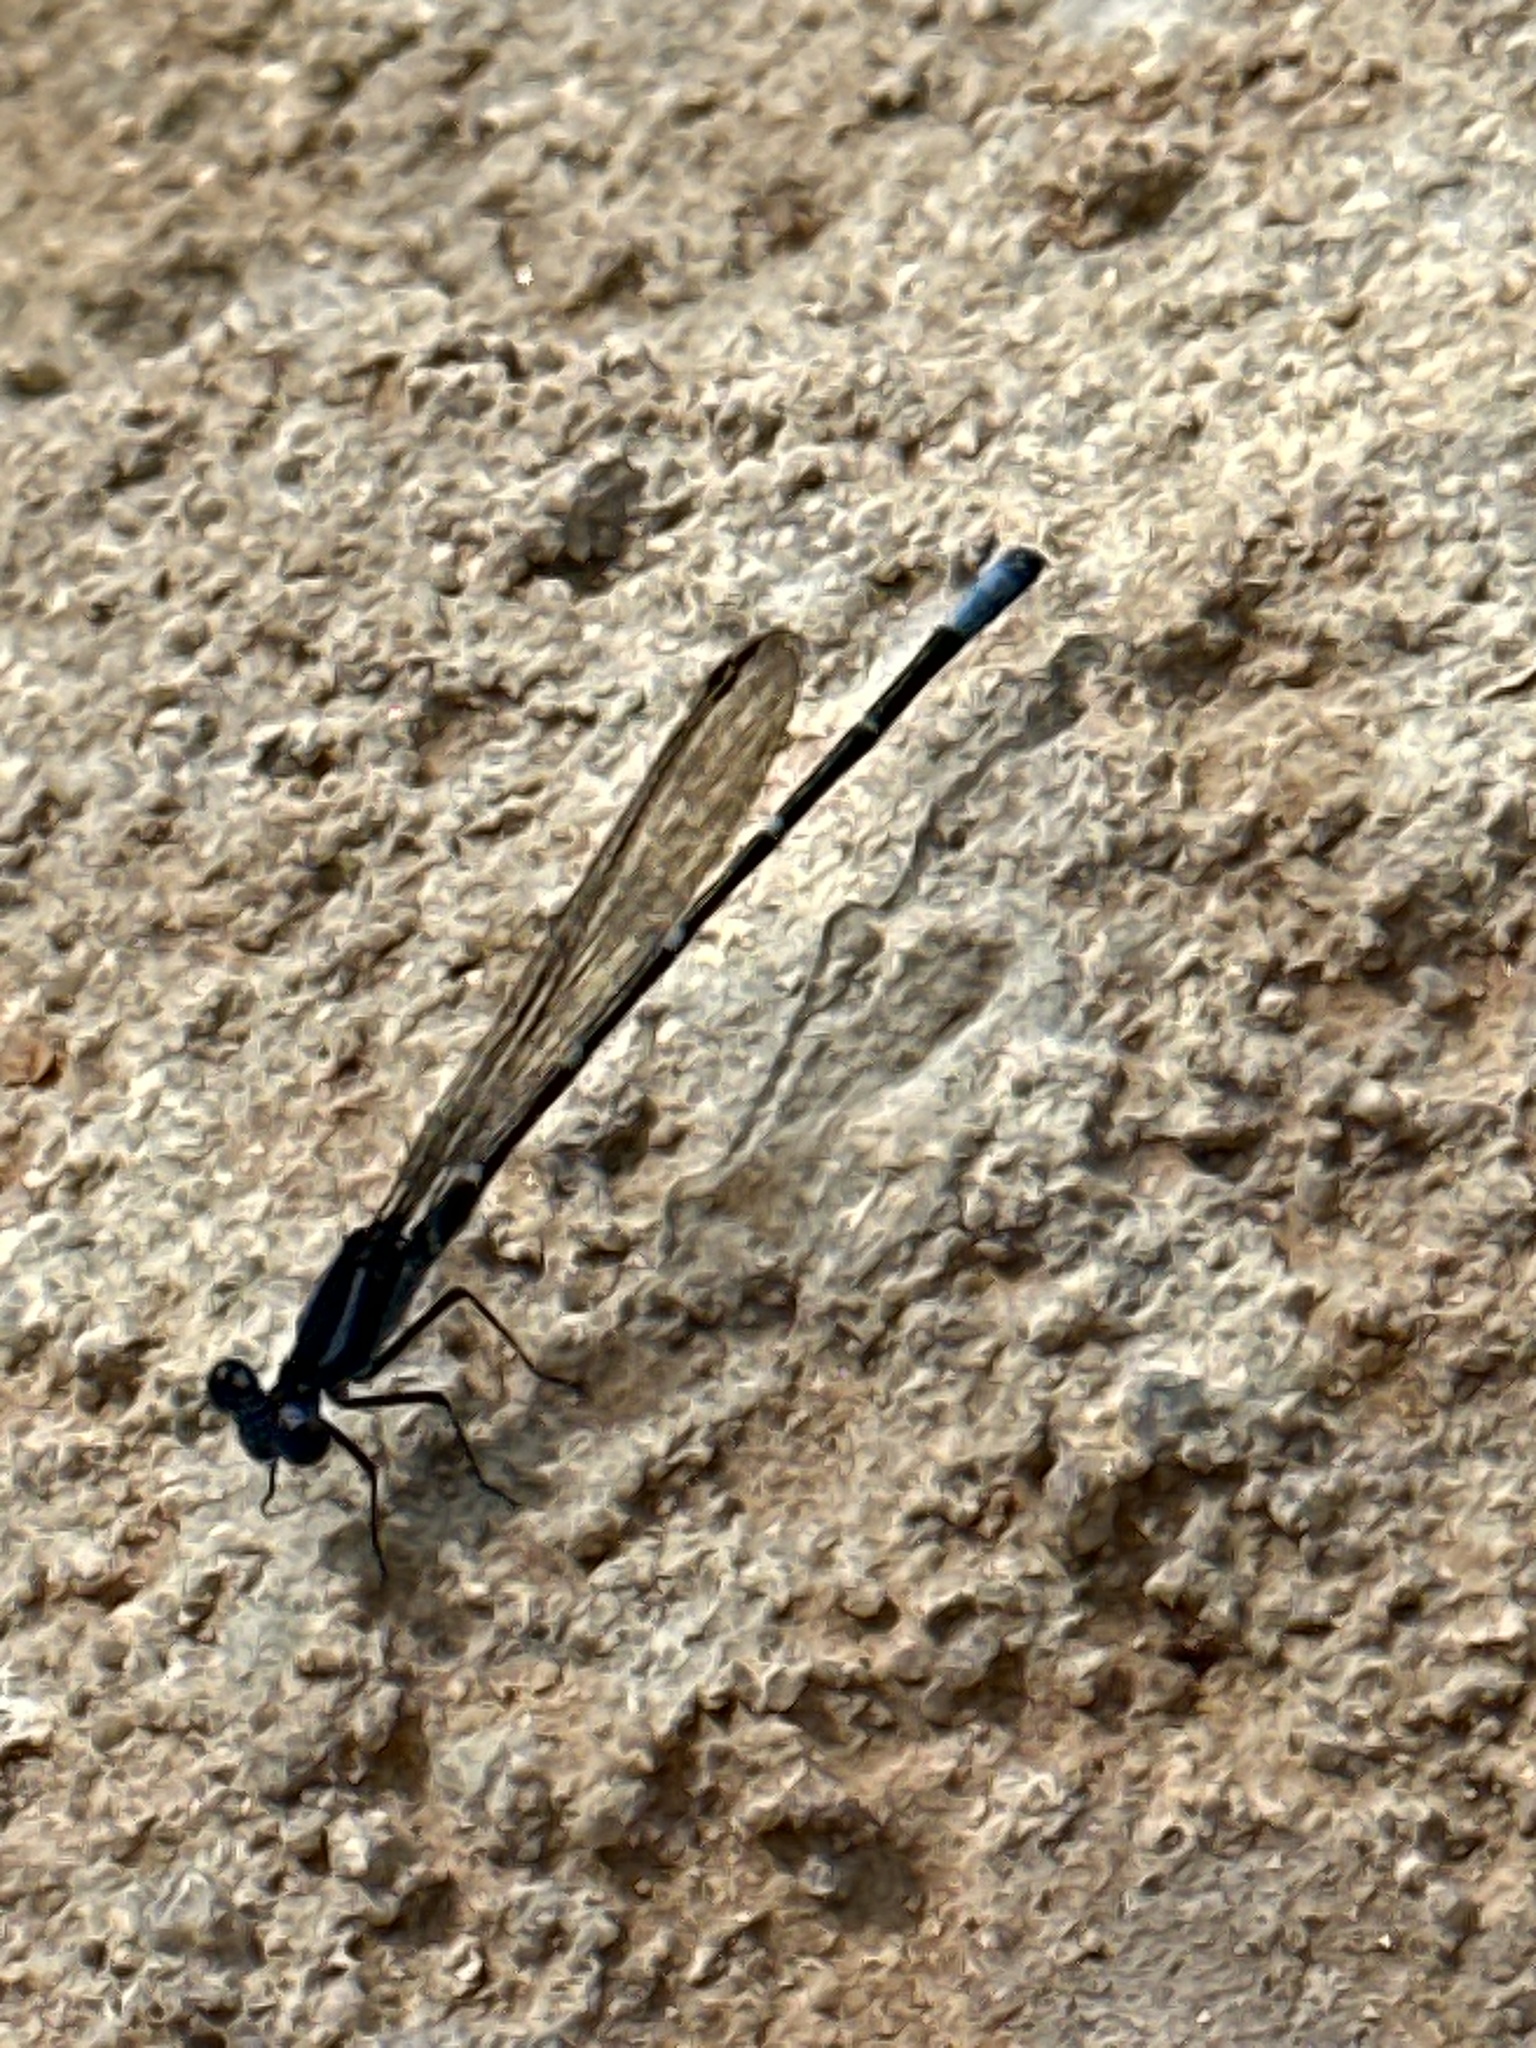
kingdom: Animalia
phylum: Arthropoda
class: Insecta
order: Odonata
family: Coenagrionidae
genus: Argia
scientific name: Argia sedula
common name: Blue-ringed dancer
